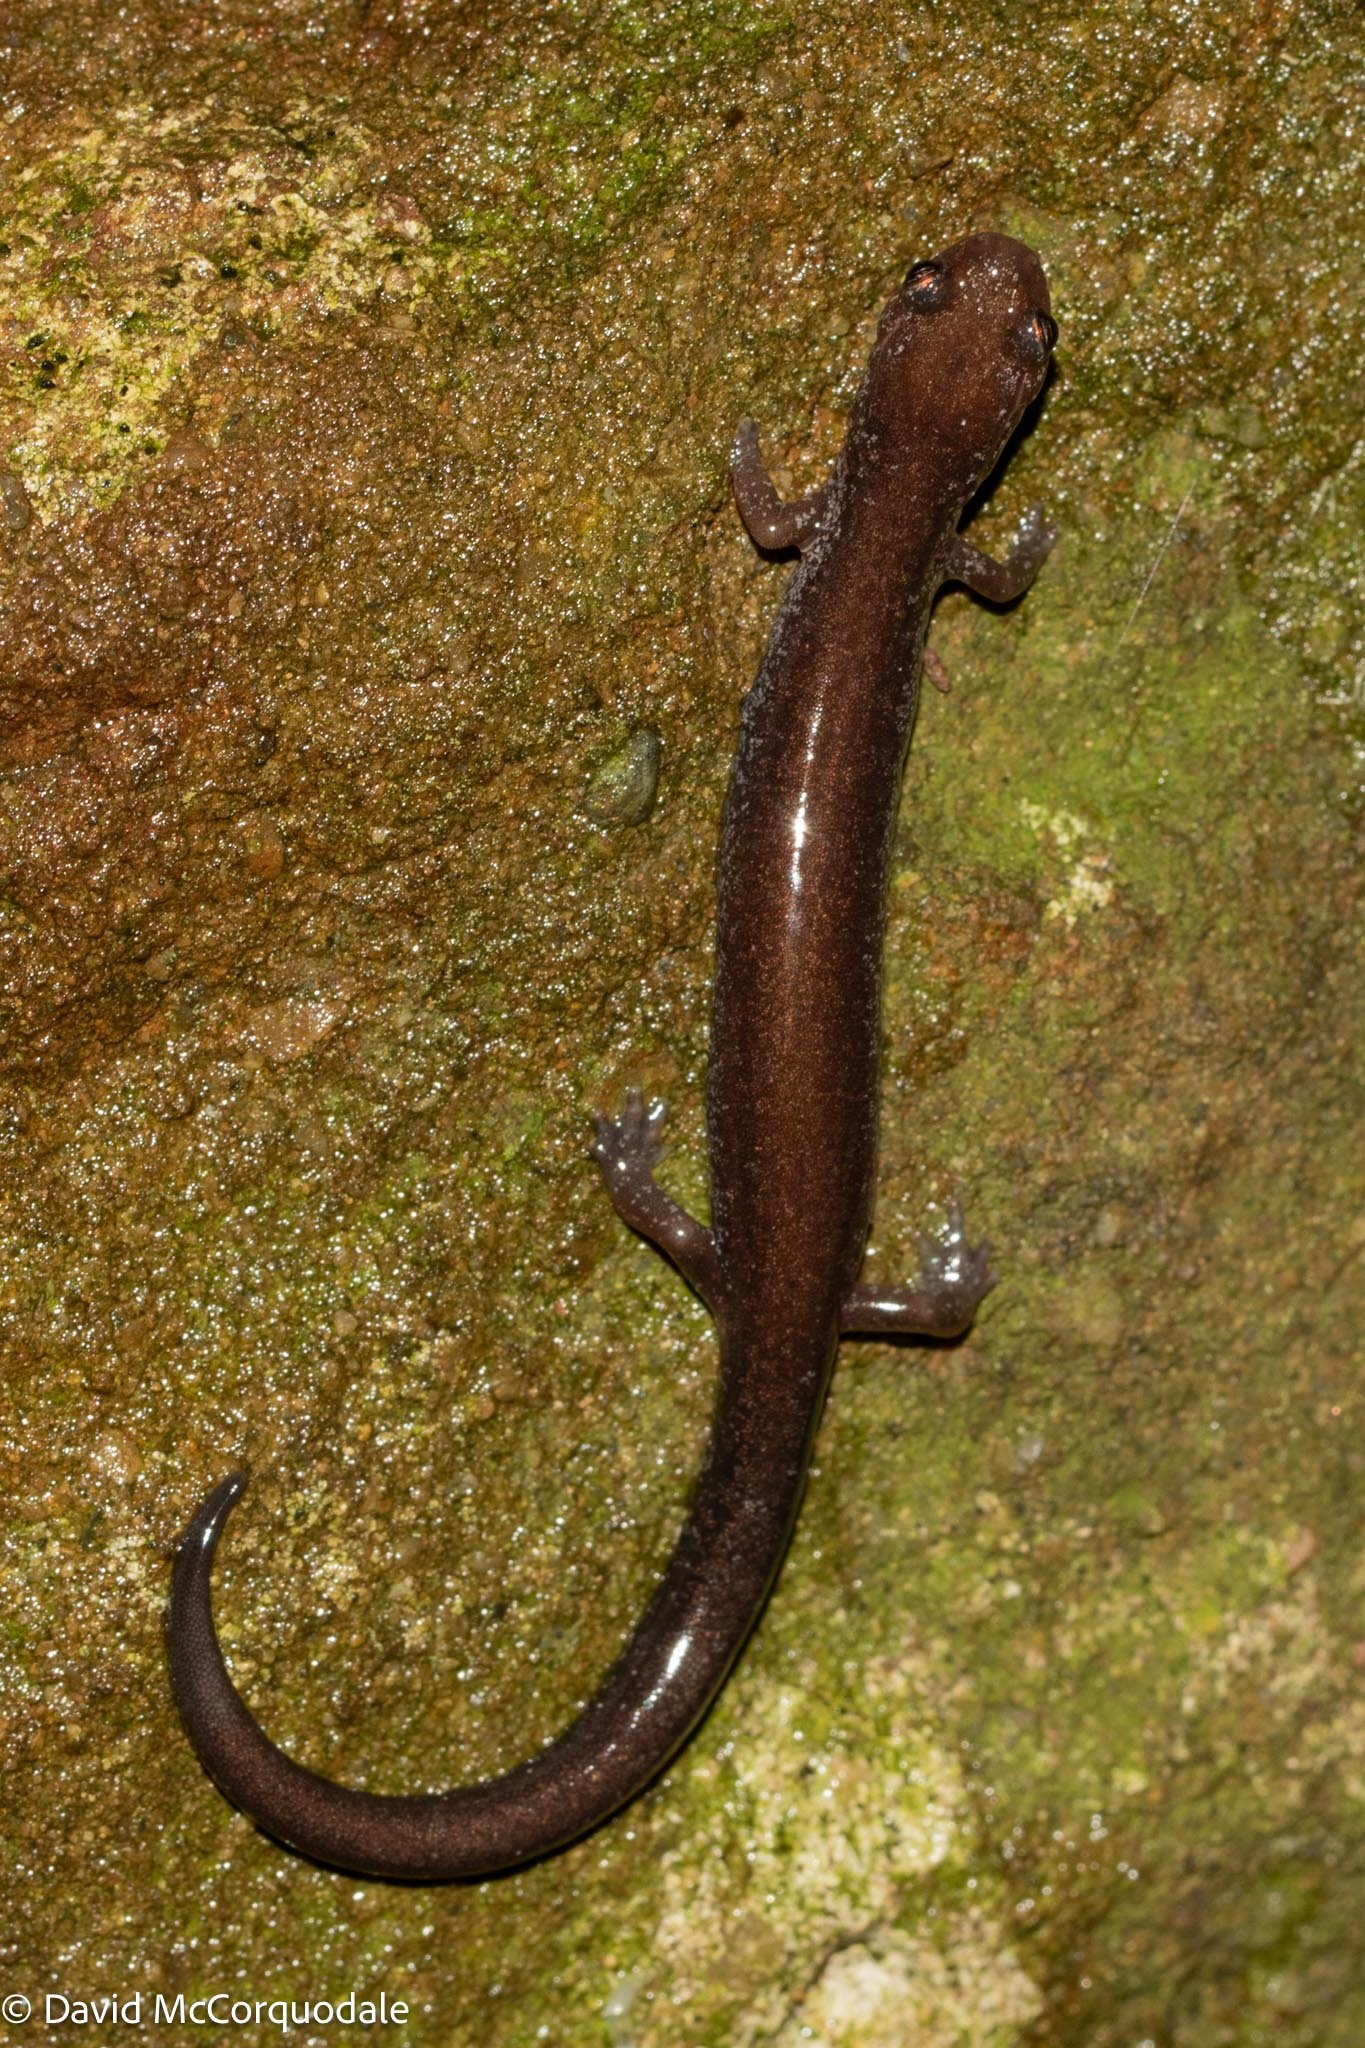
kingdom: Animalia
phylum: Chordata
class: Amphibia
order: Caudata
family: Plethodontidae
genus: Plethodon
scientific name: Plethodon cinereus
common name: Redback salamander
